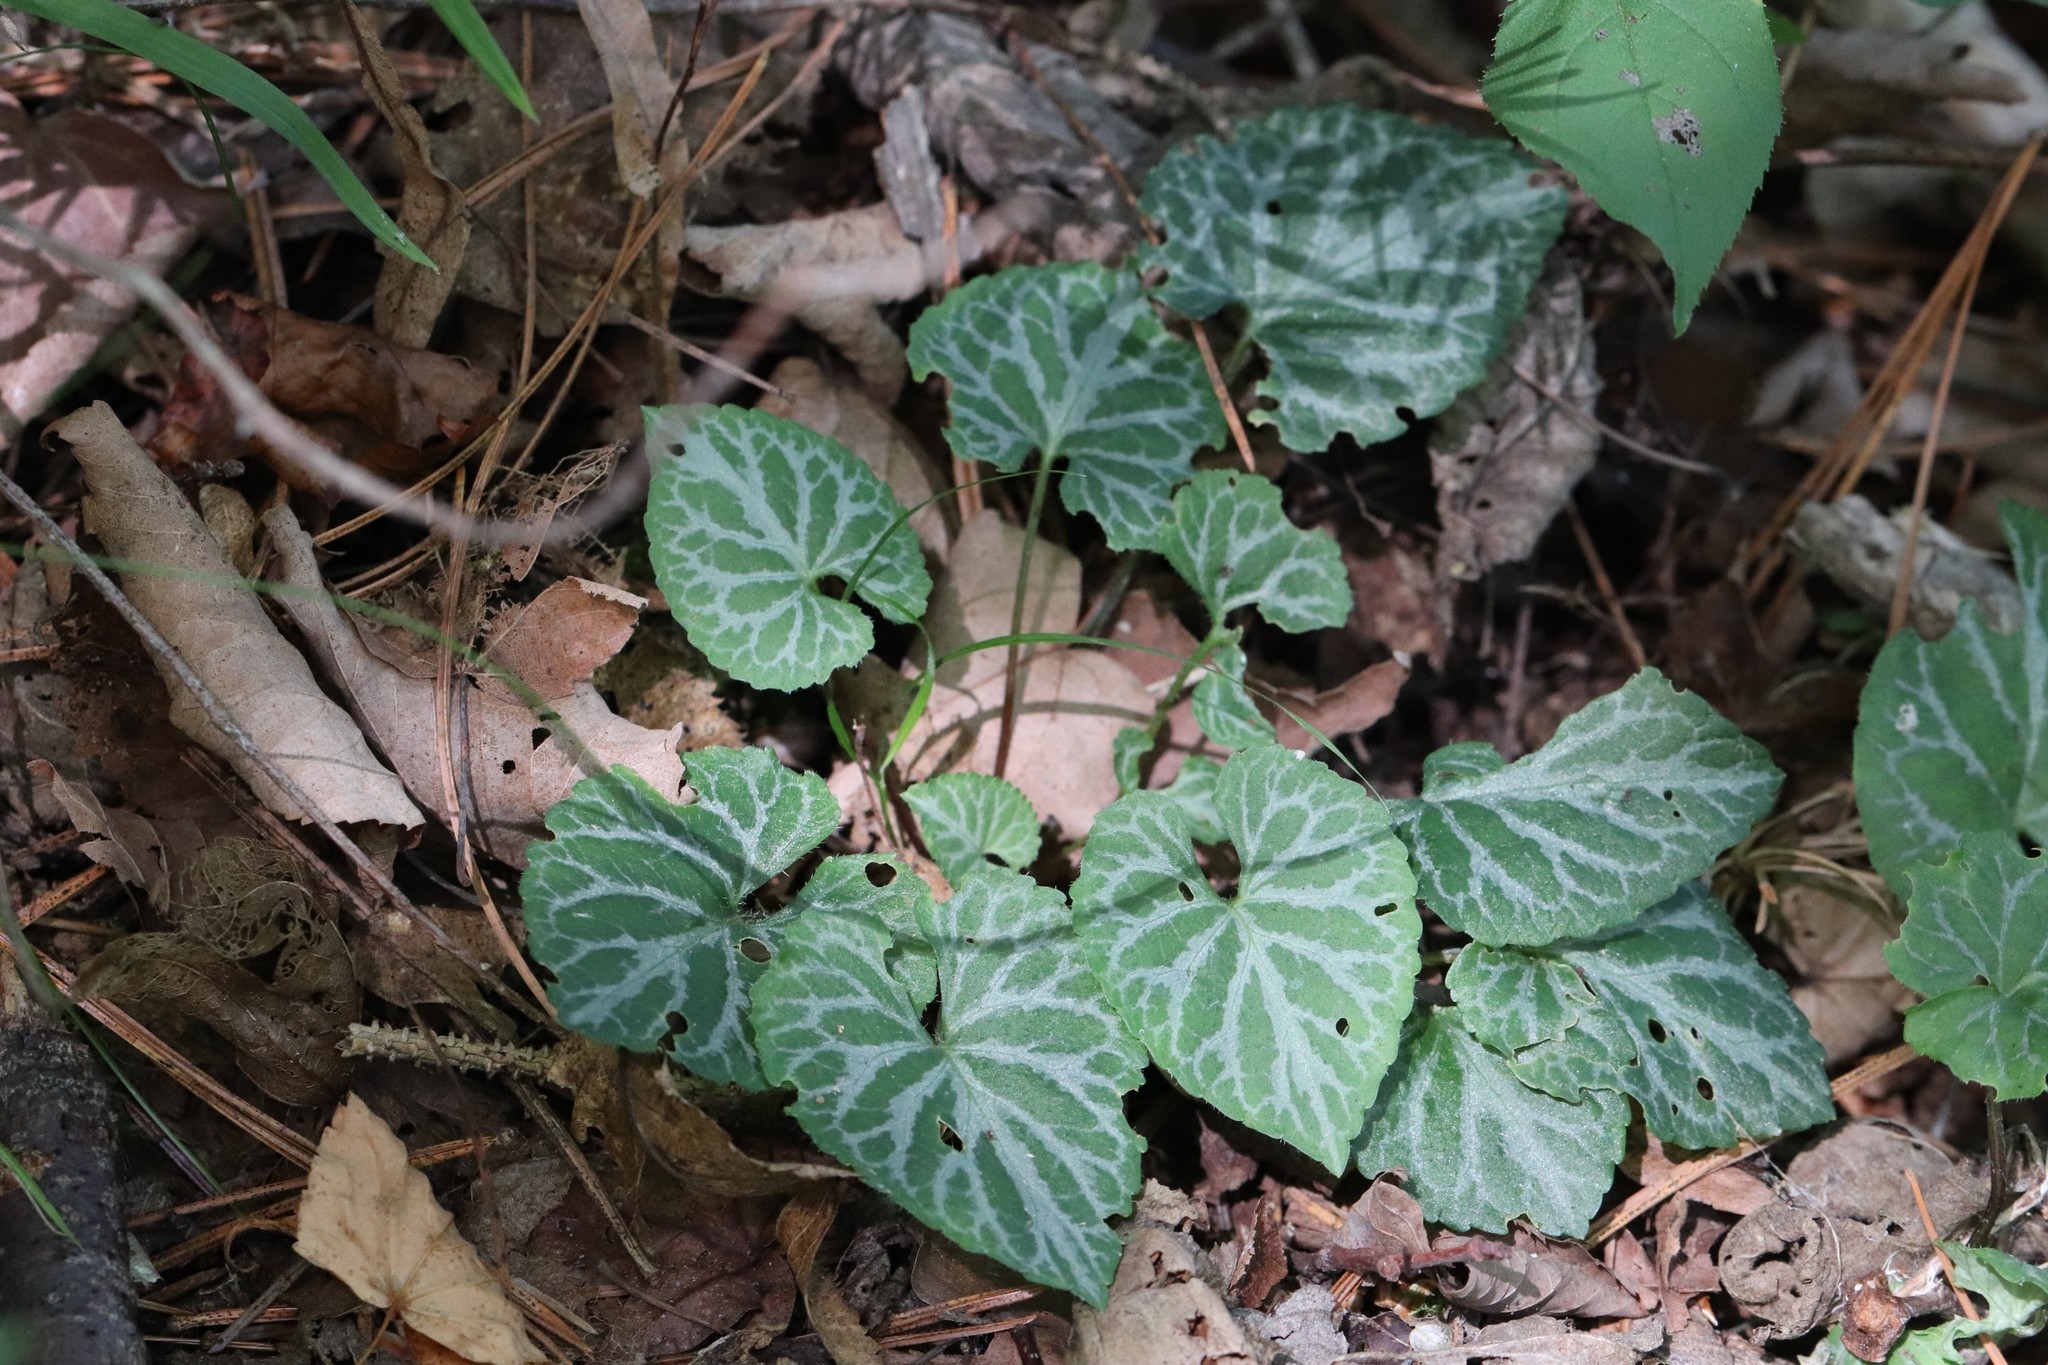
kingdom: Plantae
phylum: Tracheophyta
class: Magnoliopsida
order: Malpighiales
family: Violaceae
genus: Viola
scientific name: Viola selkirkii
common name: Selkirk's violet
